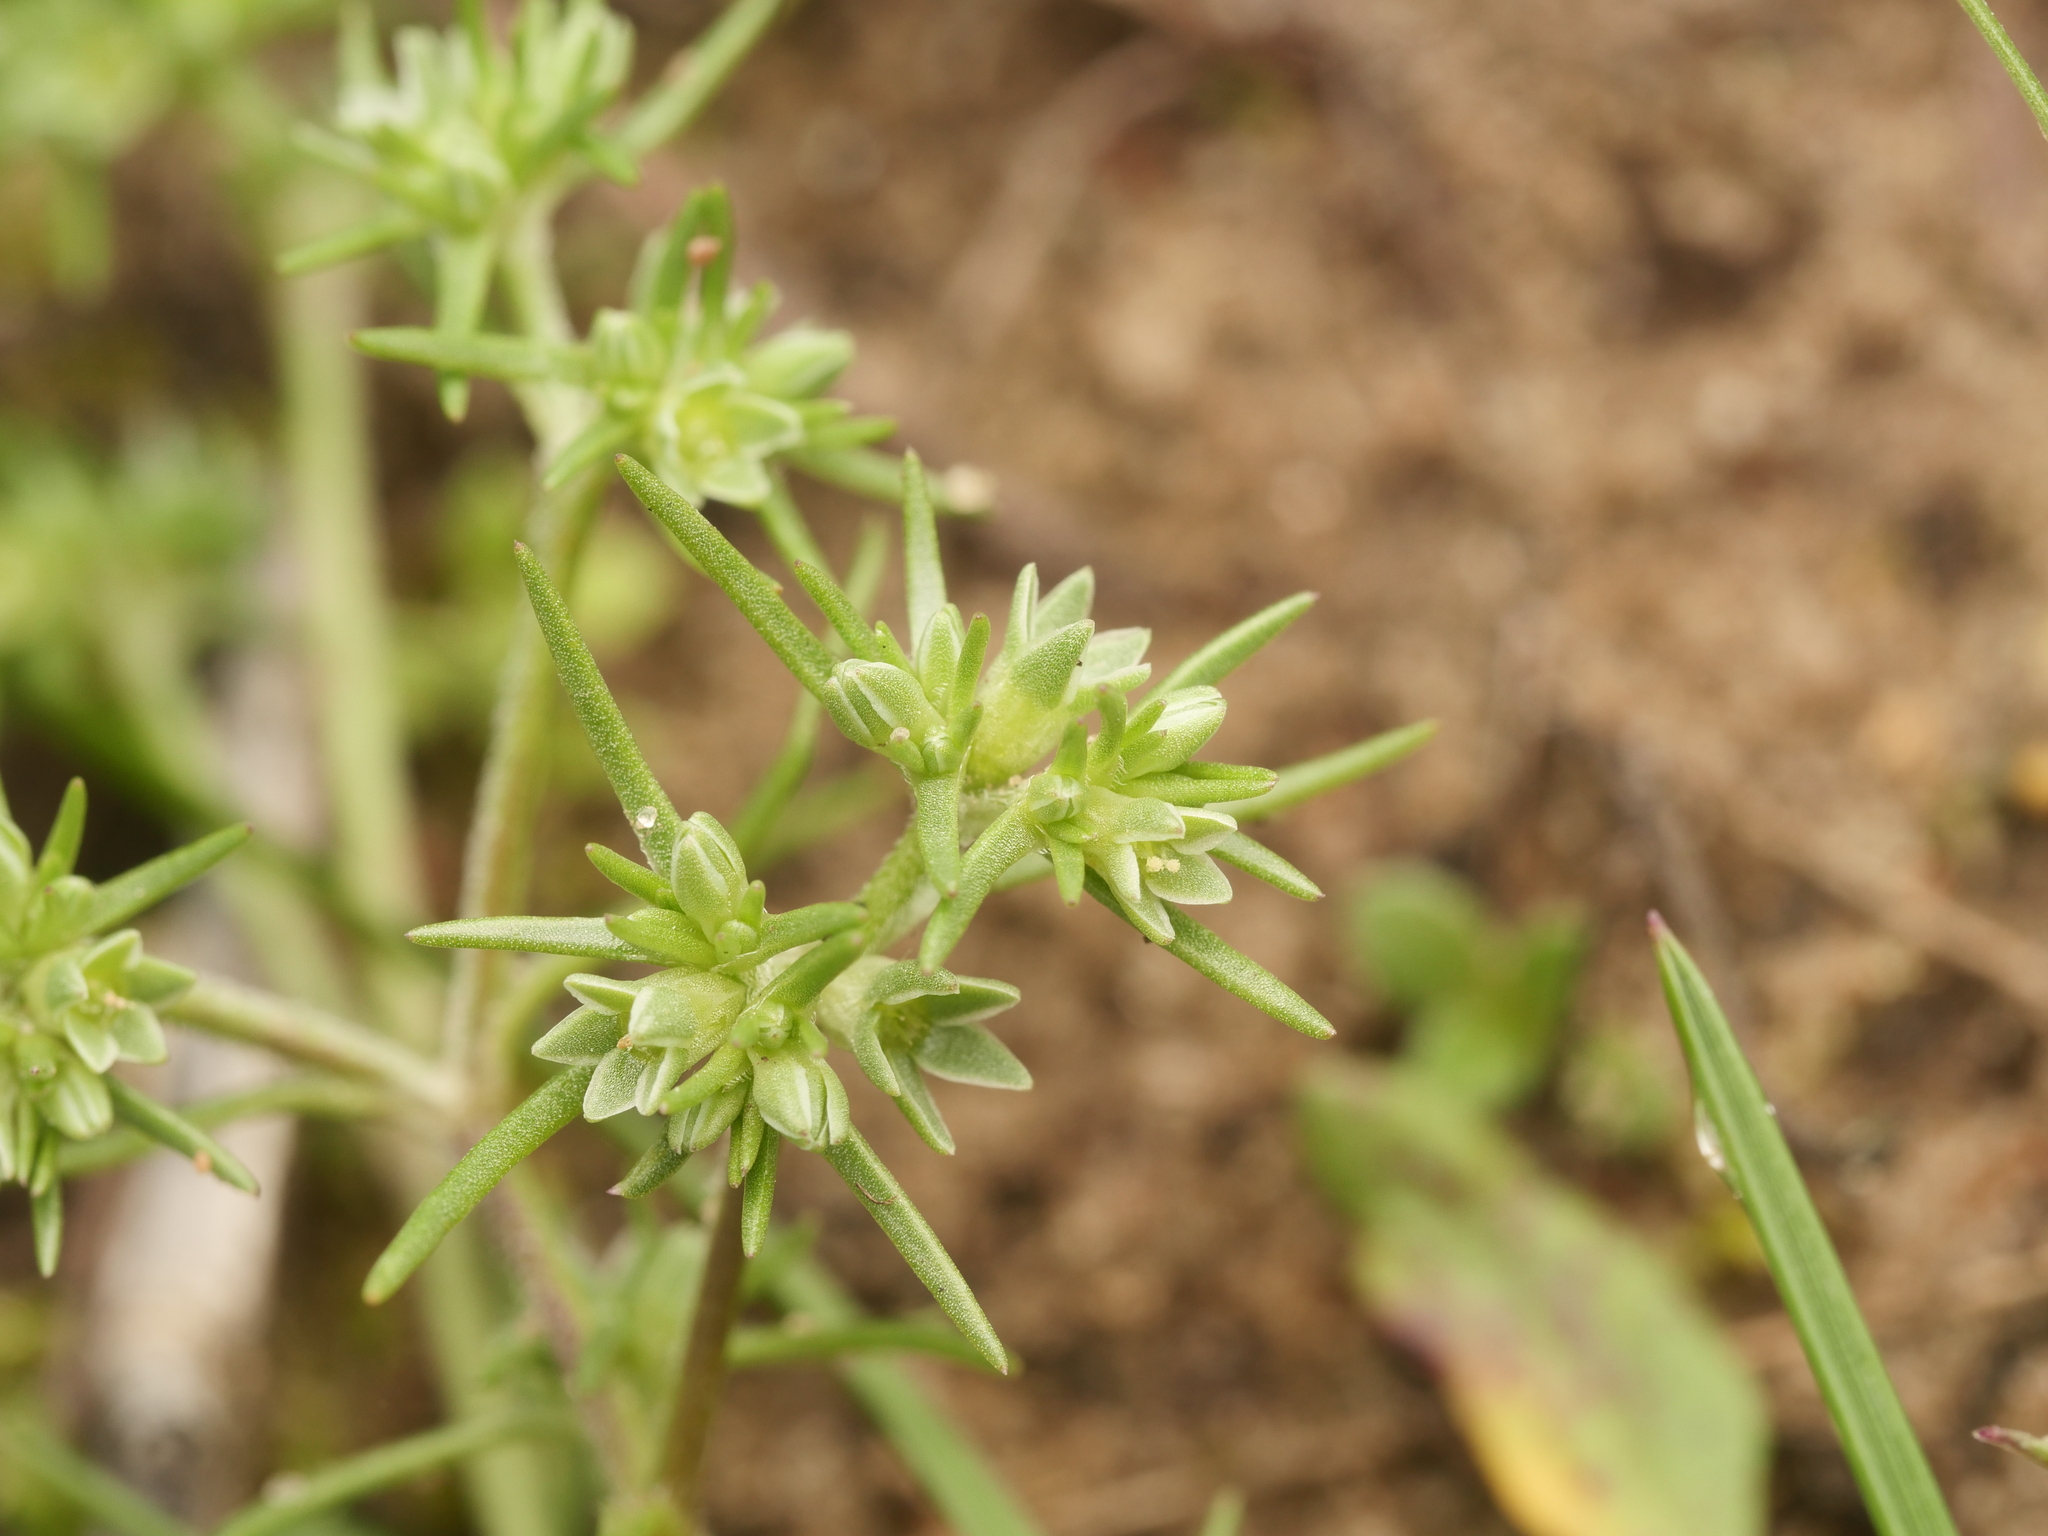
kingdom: Plantae
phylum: Tracheophyta
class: Magnoliopsida
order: Caryophyllales
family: Caryophyllaceae
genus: Scleranthus
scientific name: Scleranthus annuus
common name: Annual knawel
